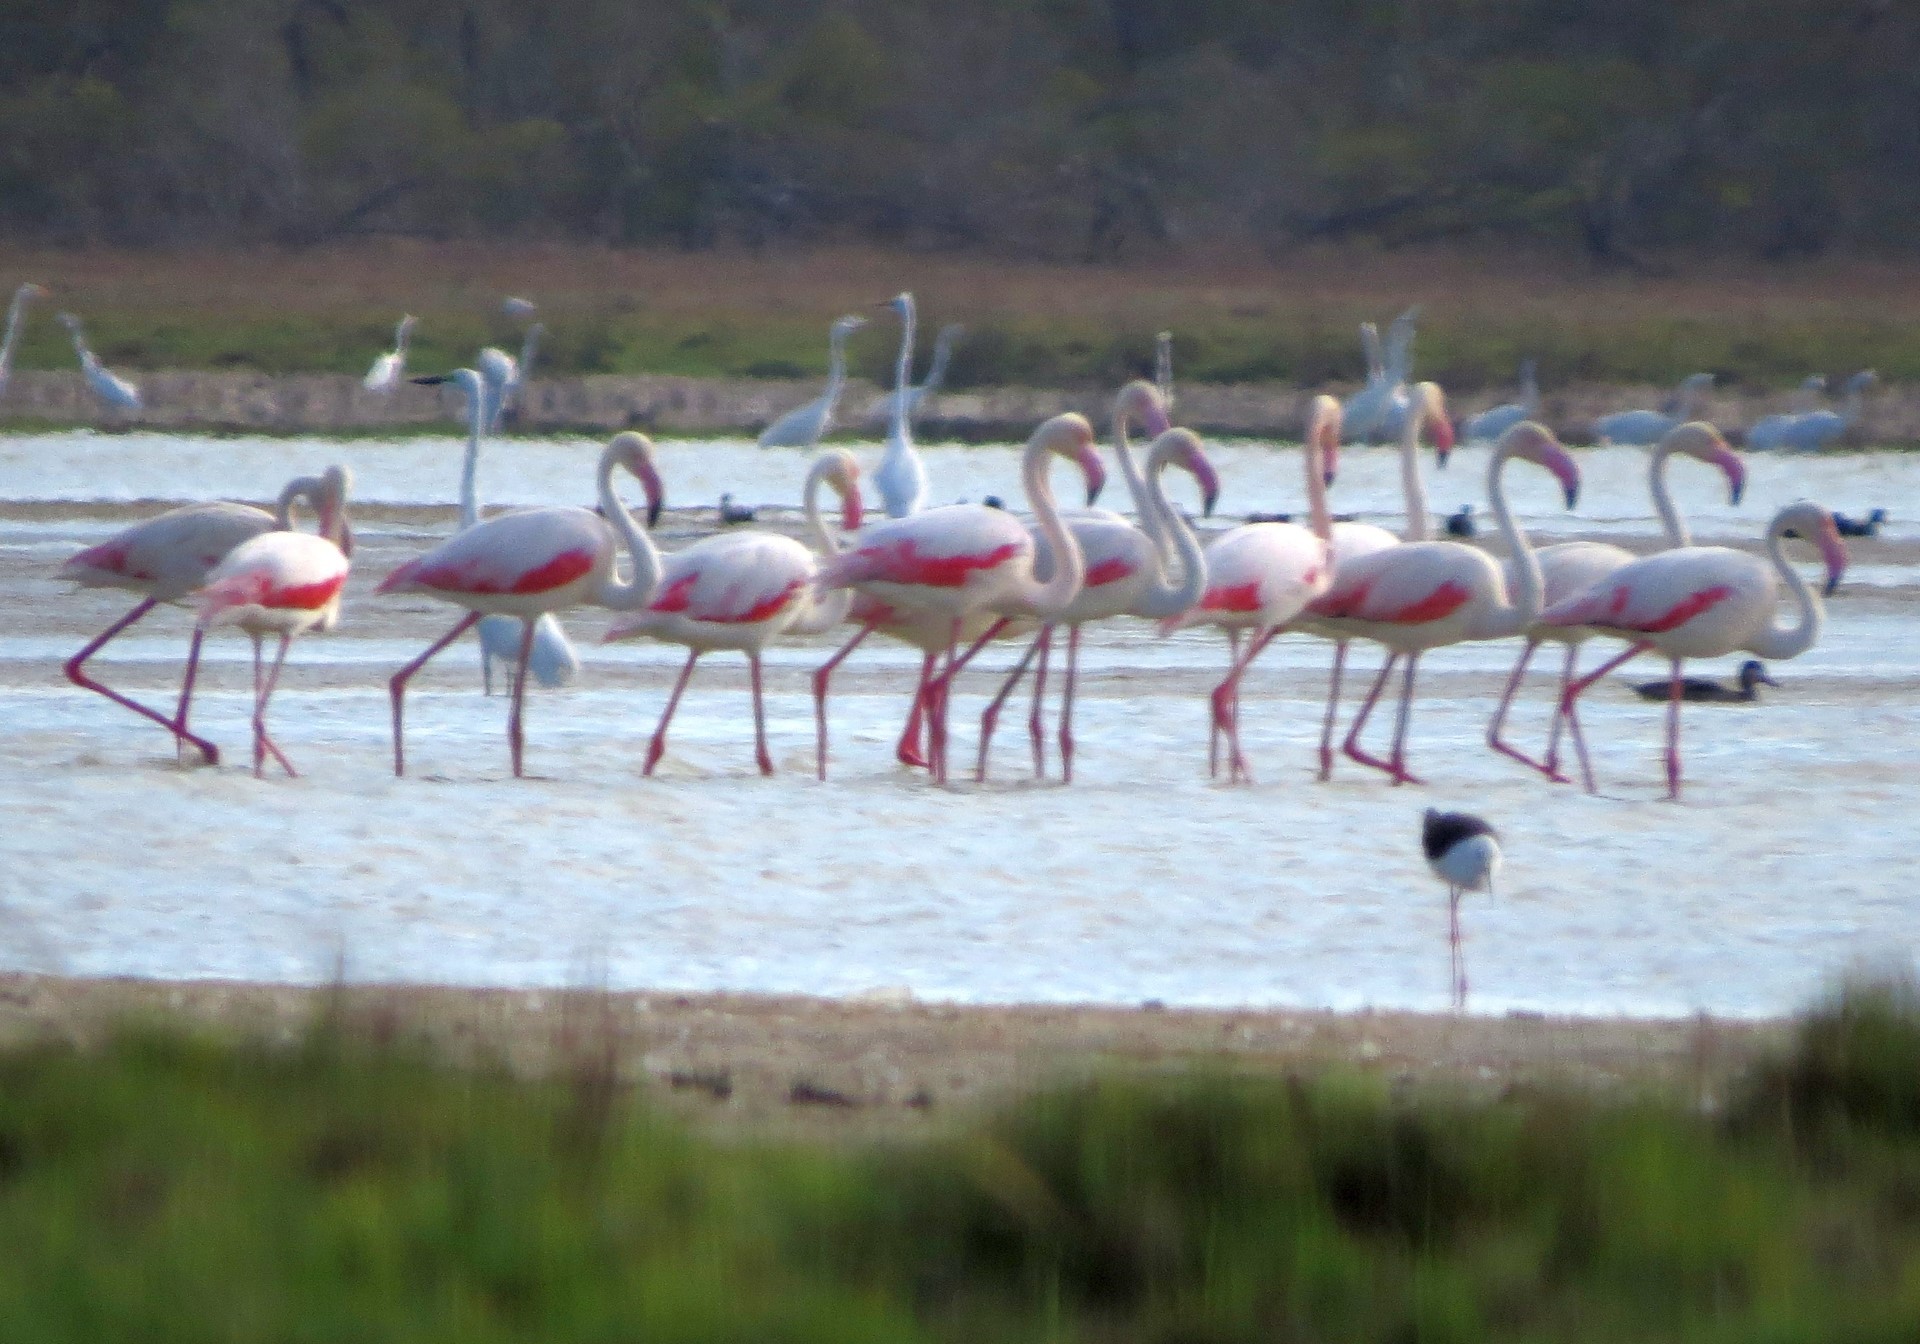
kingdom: Animalia
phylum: Chordata
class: Aves
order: Phoenicopteriformes
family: Phoenicopteridae
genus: Phoenicopterus
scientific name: Phoenicopterus roseus
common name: Greater flamingo
